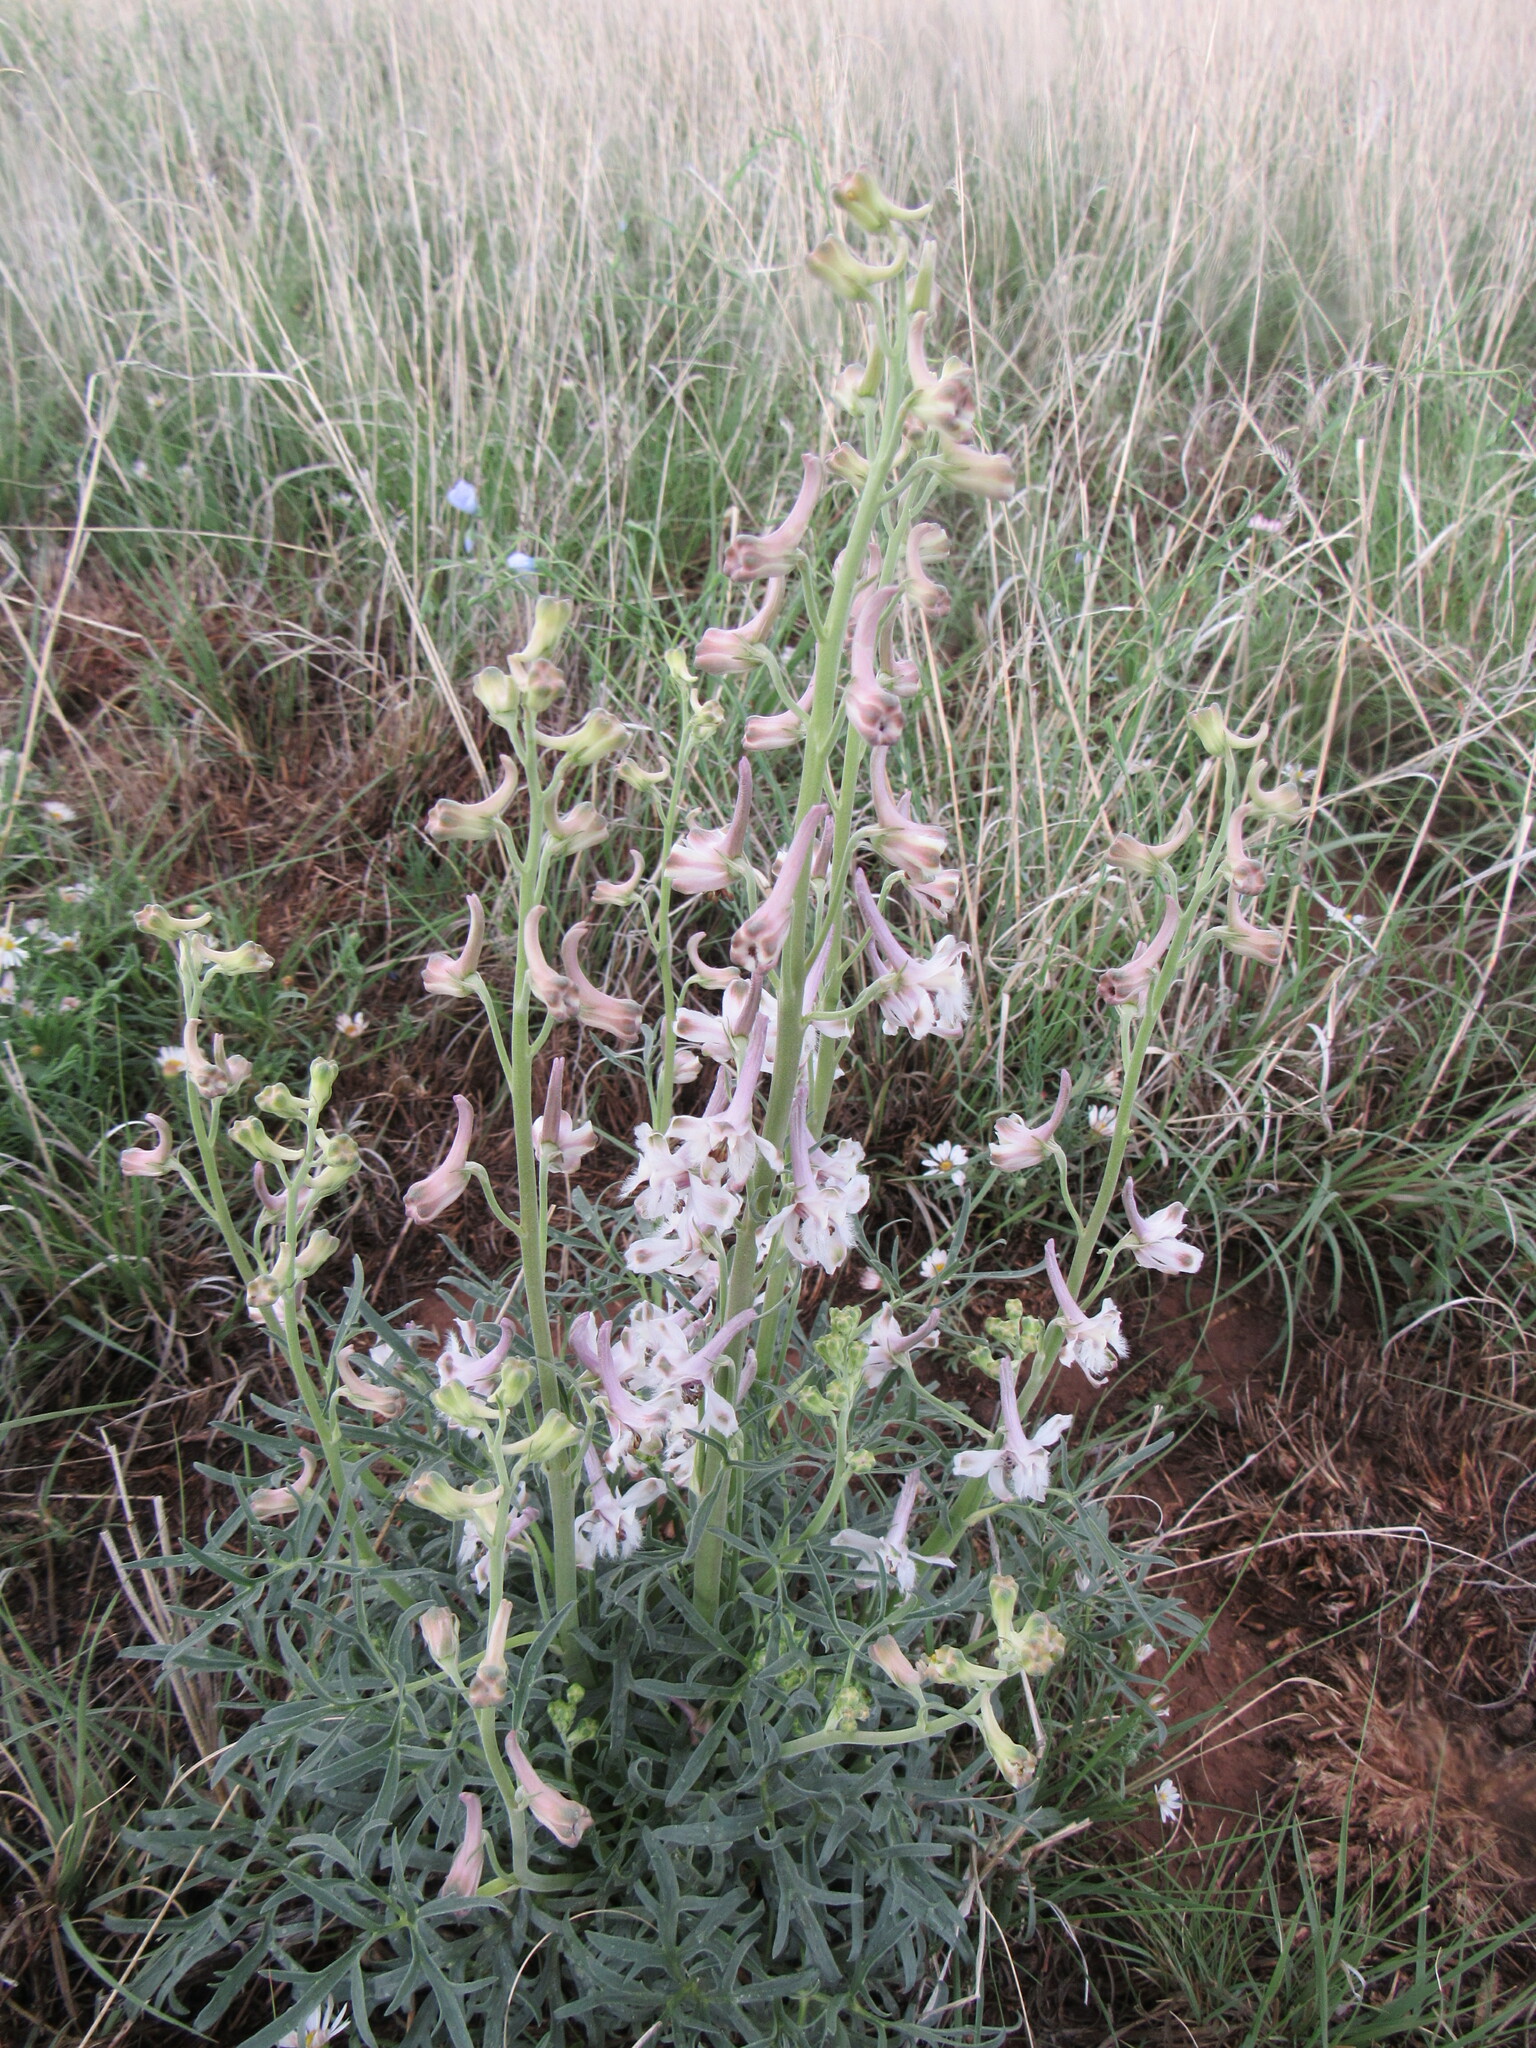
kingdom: Plantae
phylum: Tracheophyta
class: Magnoliopsida
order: Ranunculales
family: Ranunculaceae
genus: Delphinium
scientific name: Delphinium wootonii
